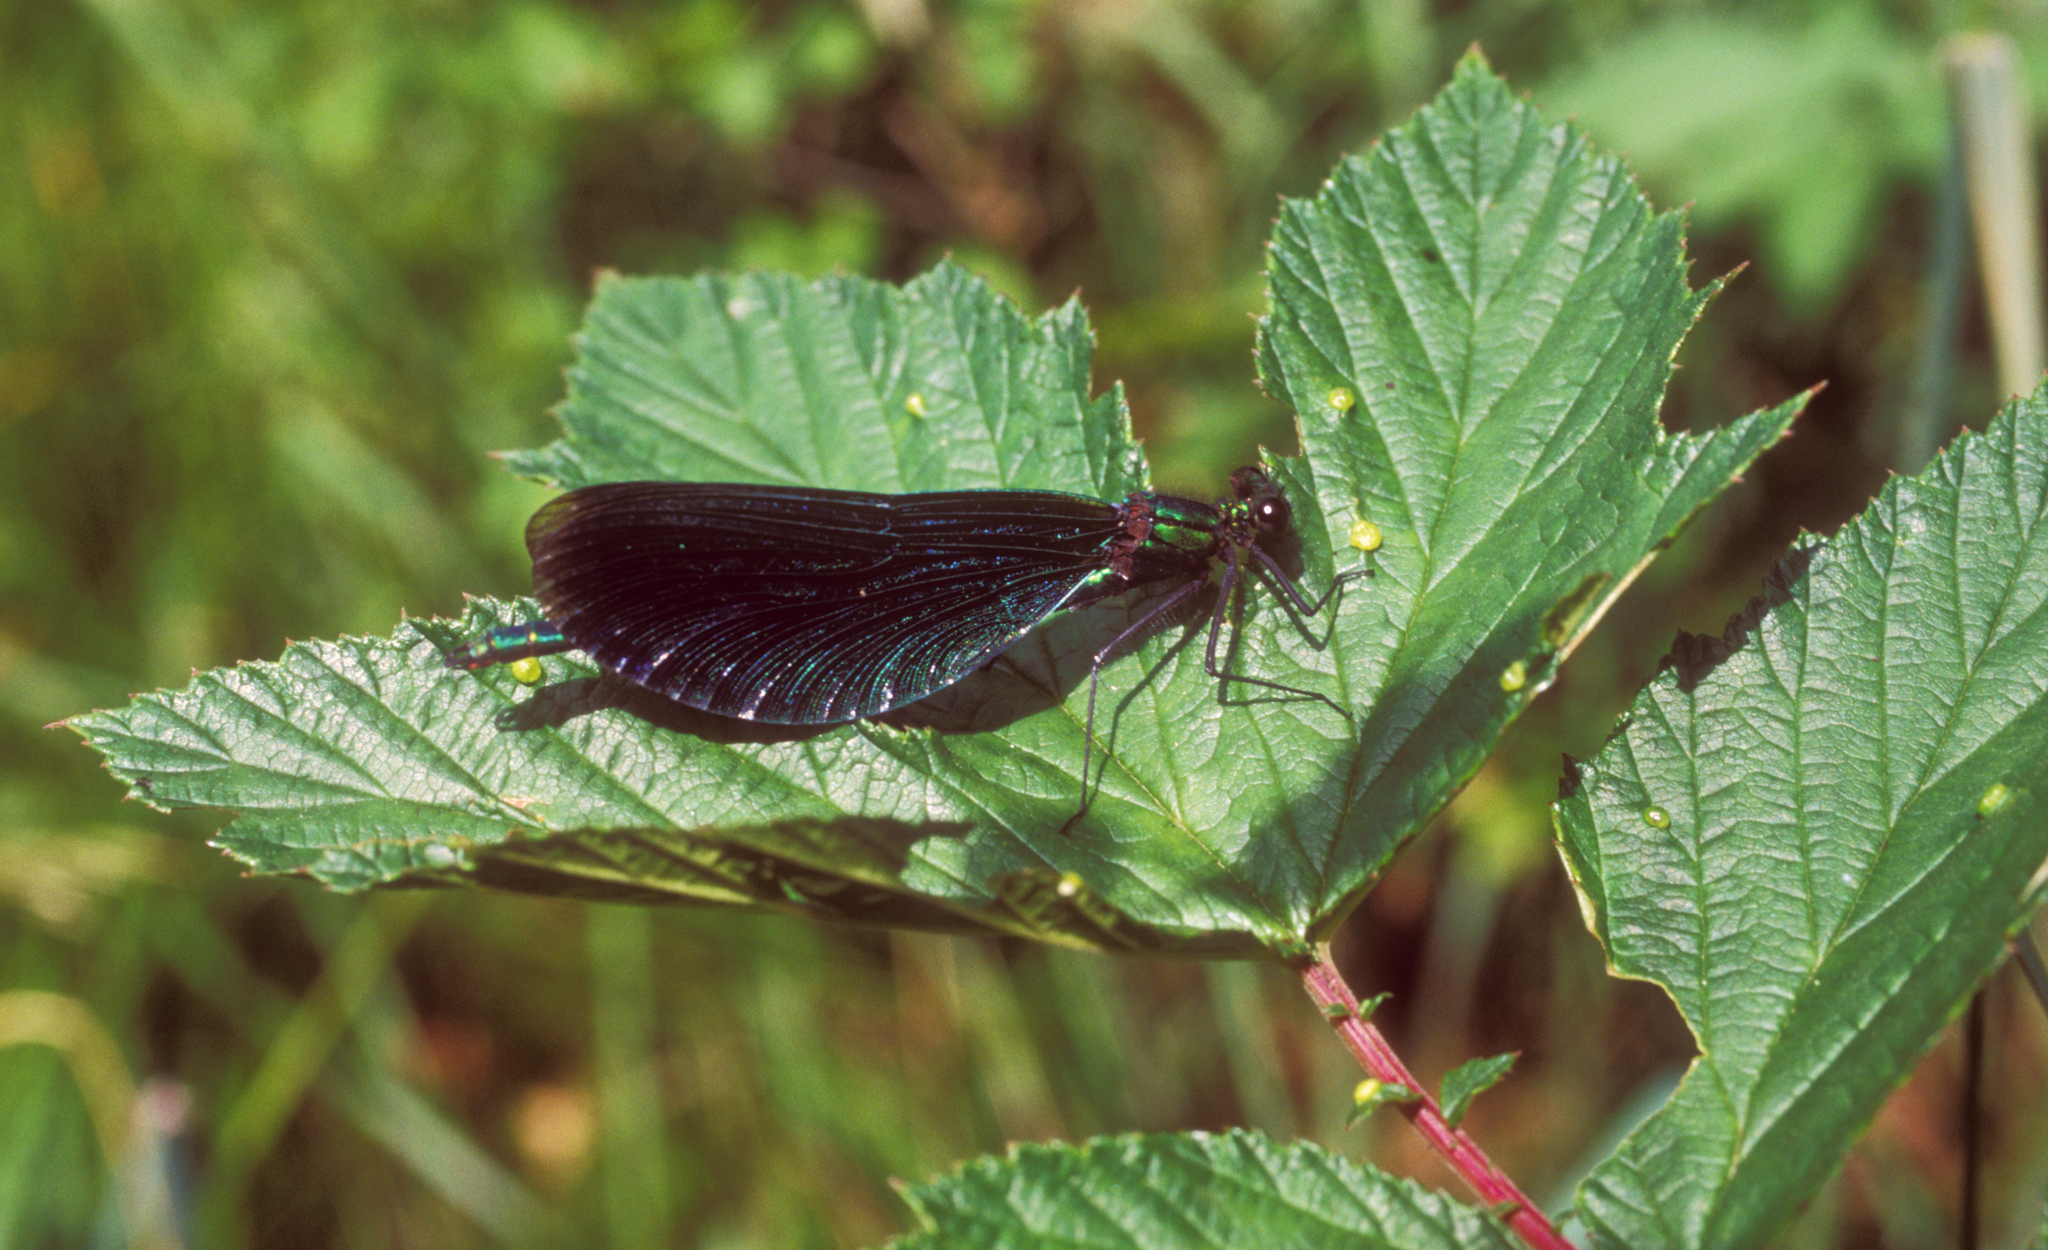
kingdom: Plantae
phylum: Tracheophyta
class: Magnoliopsida
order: Rosales
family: Rosaceae
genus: Filipendula
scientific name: Filipendula ulmaria
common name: Meadowsweet
